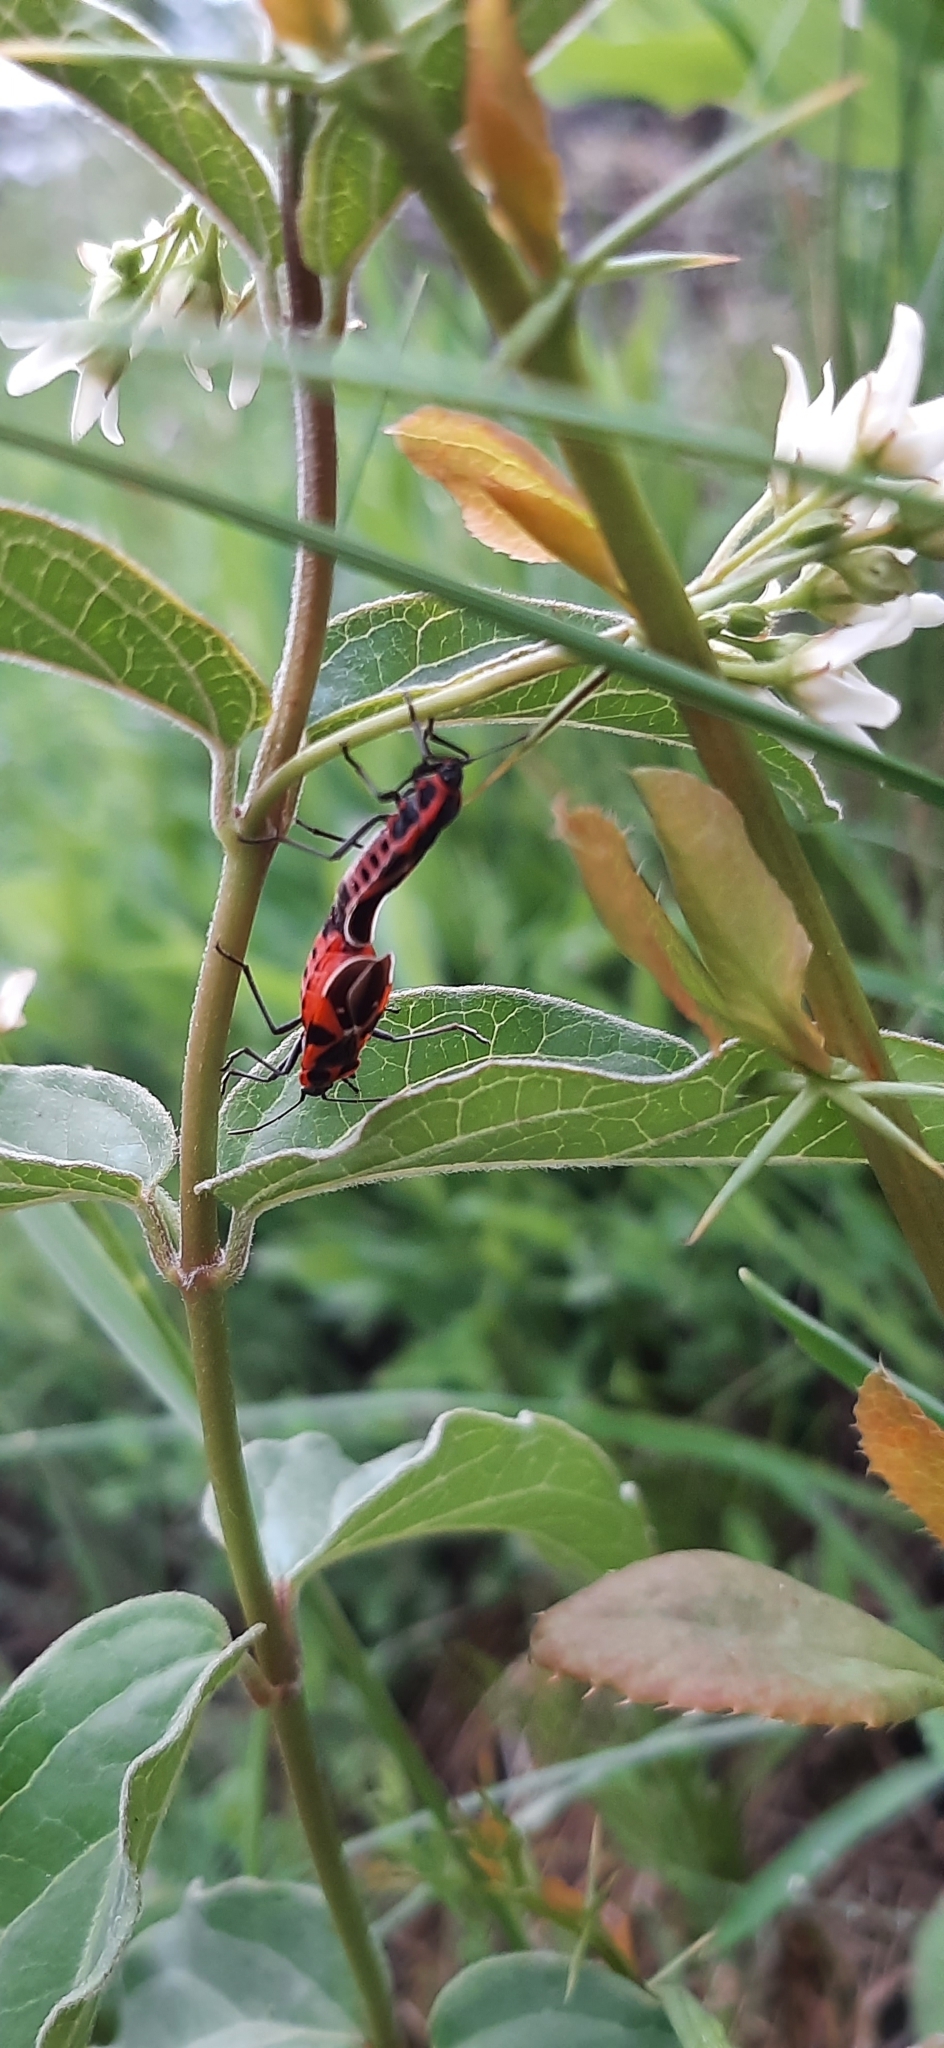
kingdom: Animalia
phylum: Arthropoda
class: Insecta
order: Hemiptera
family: Lygaeidae
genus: Tropidothorax
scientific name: Tropidothorax leucopterus
